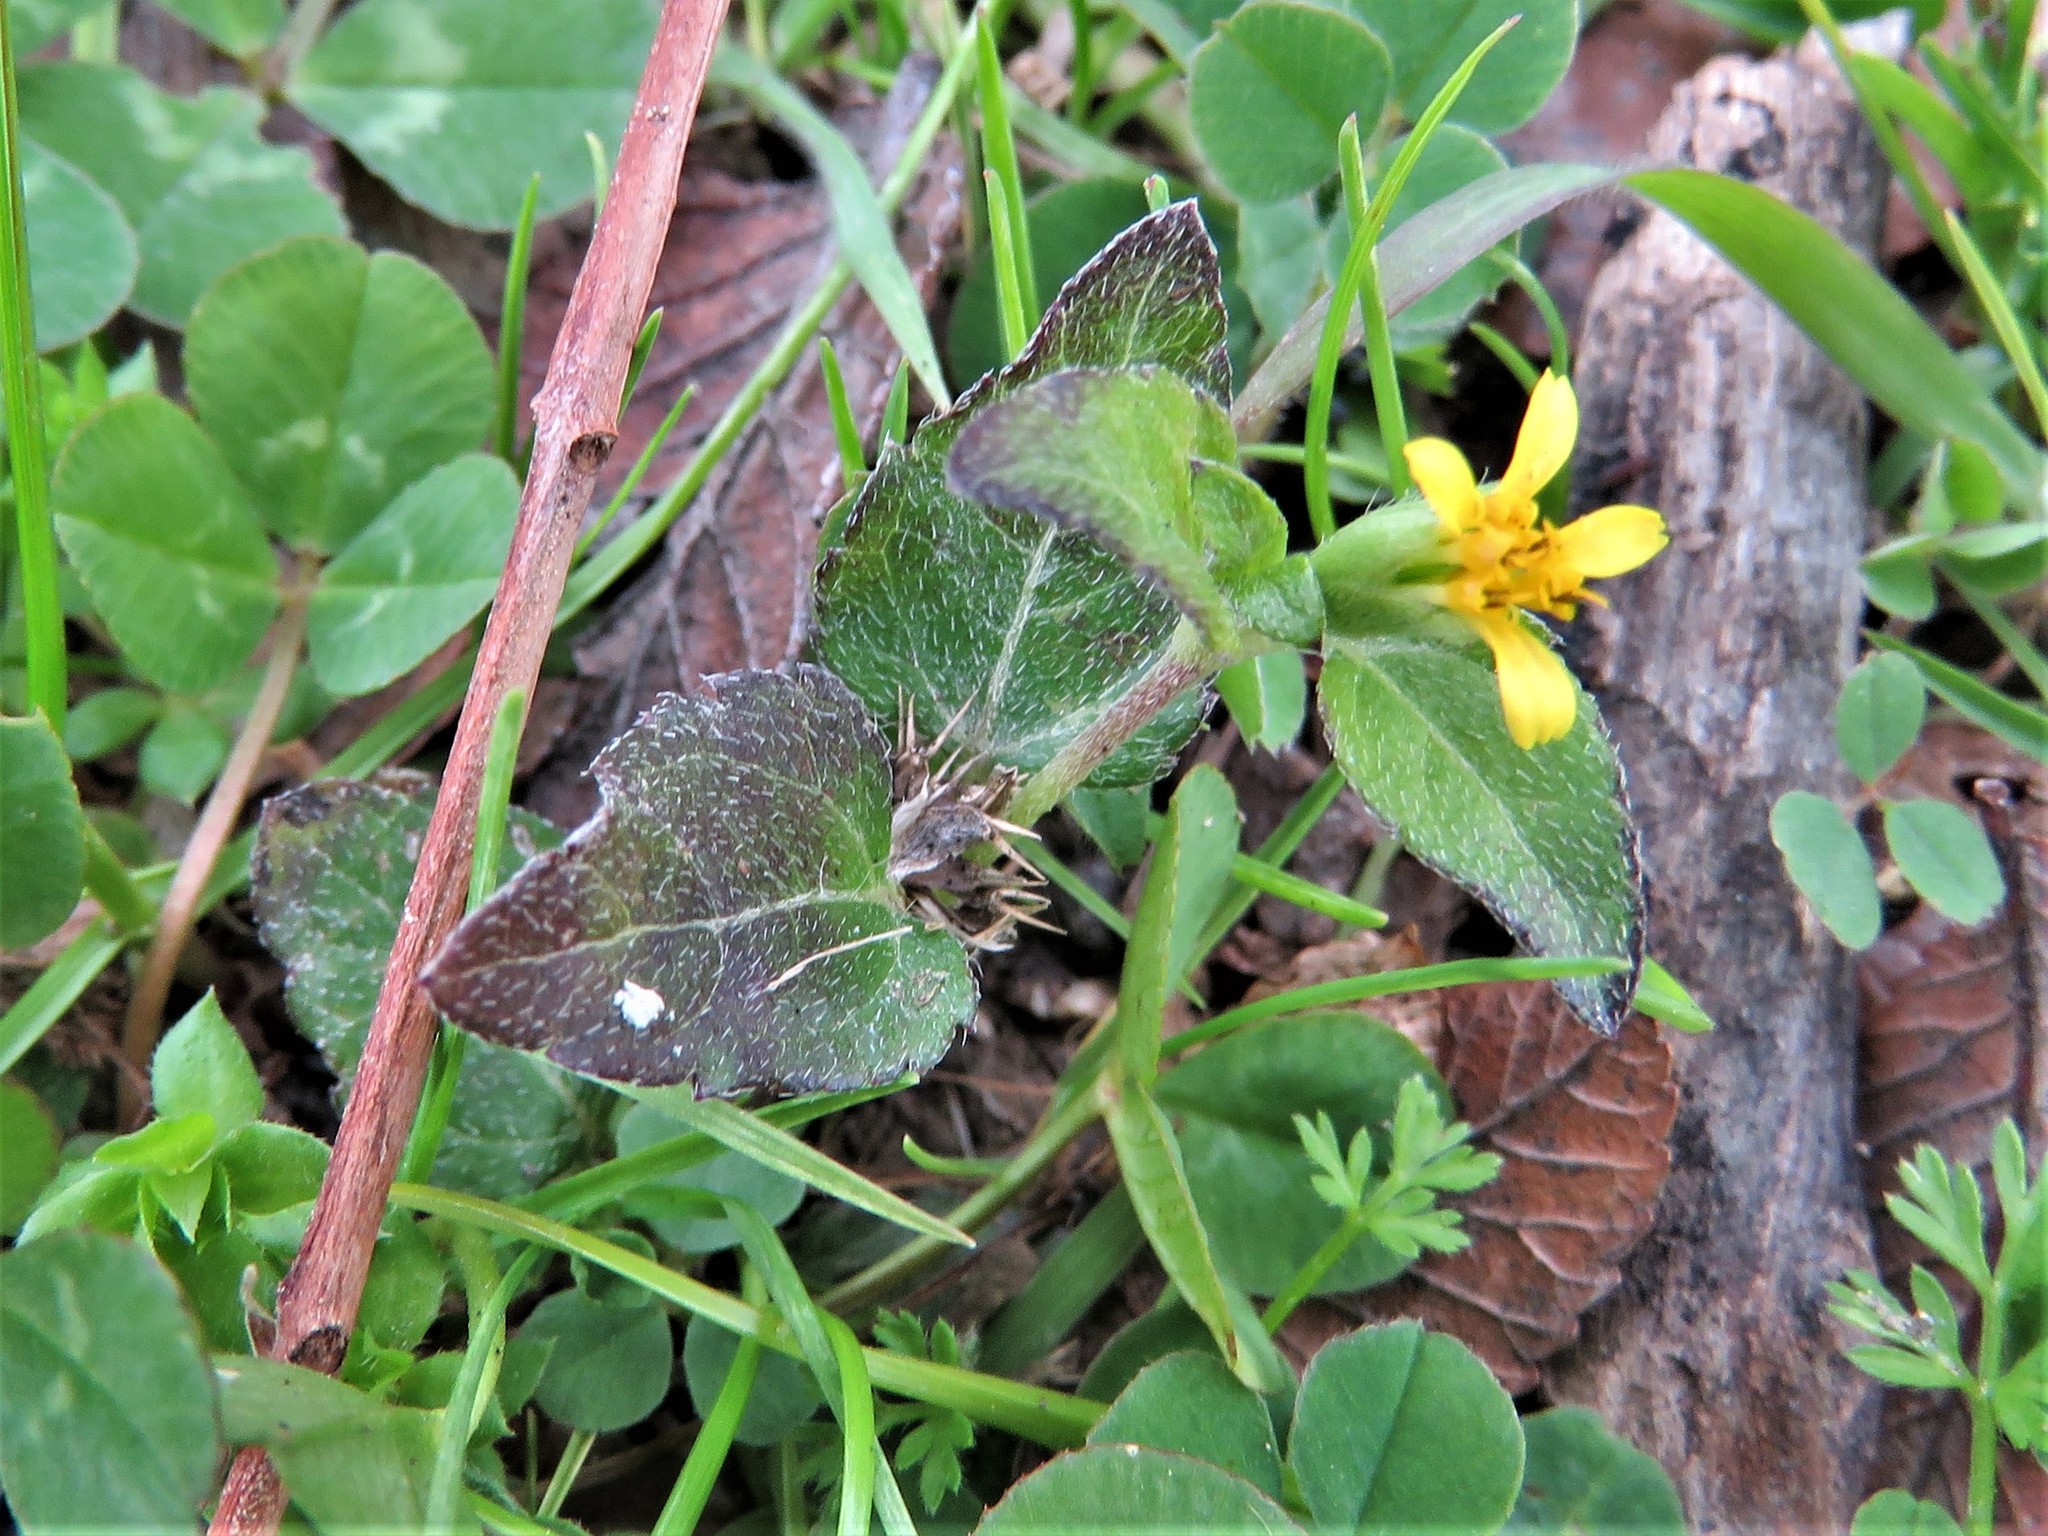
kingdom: Plantae
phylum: Tracheophyta
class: Magnoliopsida
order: Asterales
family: Asteraceae
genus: Calyptocarpus
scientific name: Calyptocarpus vialis
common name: Straggler daisy
